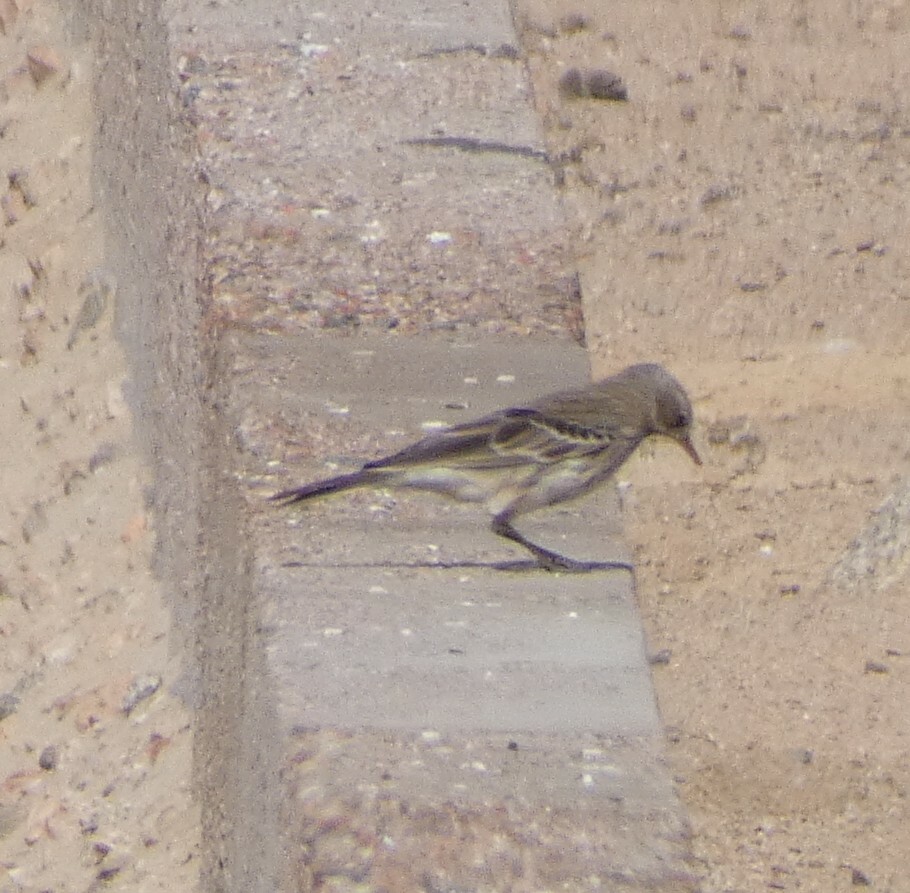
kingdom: Animalia
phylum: Chordata
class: Aves
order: Passeriformes
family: Motacillidae
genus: Anthus
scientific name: Anthus spinoletta
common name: Water pipit
